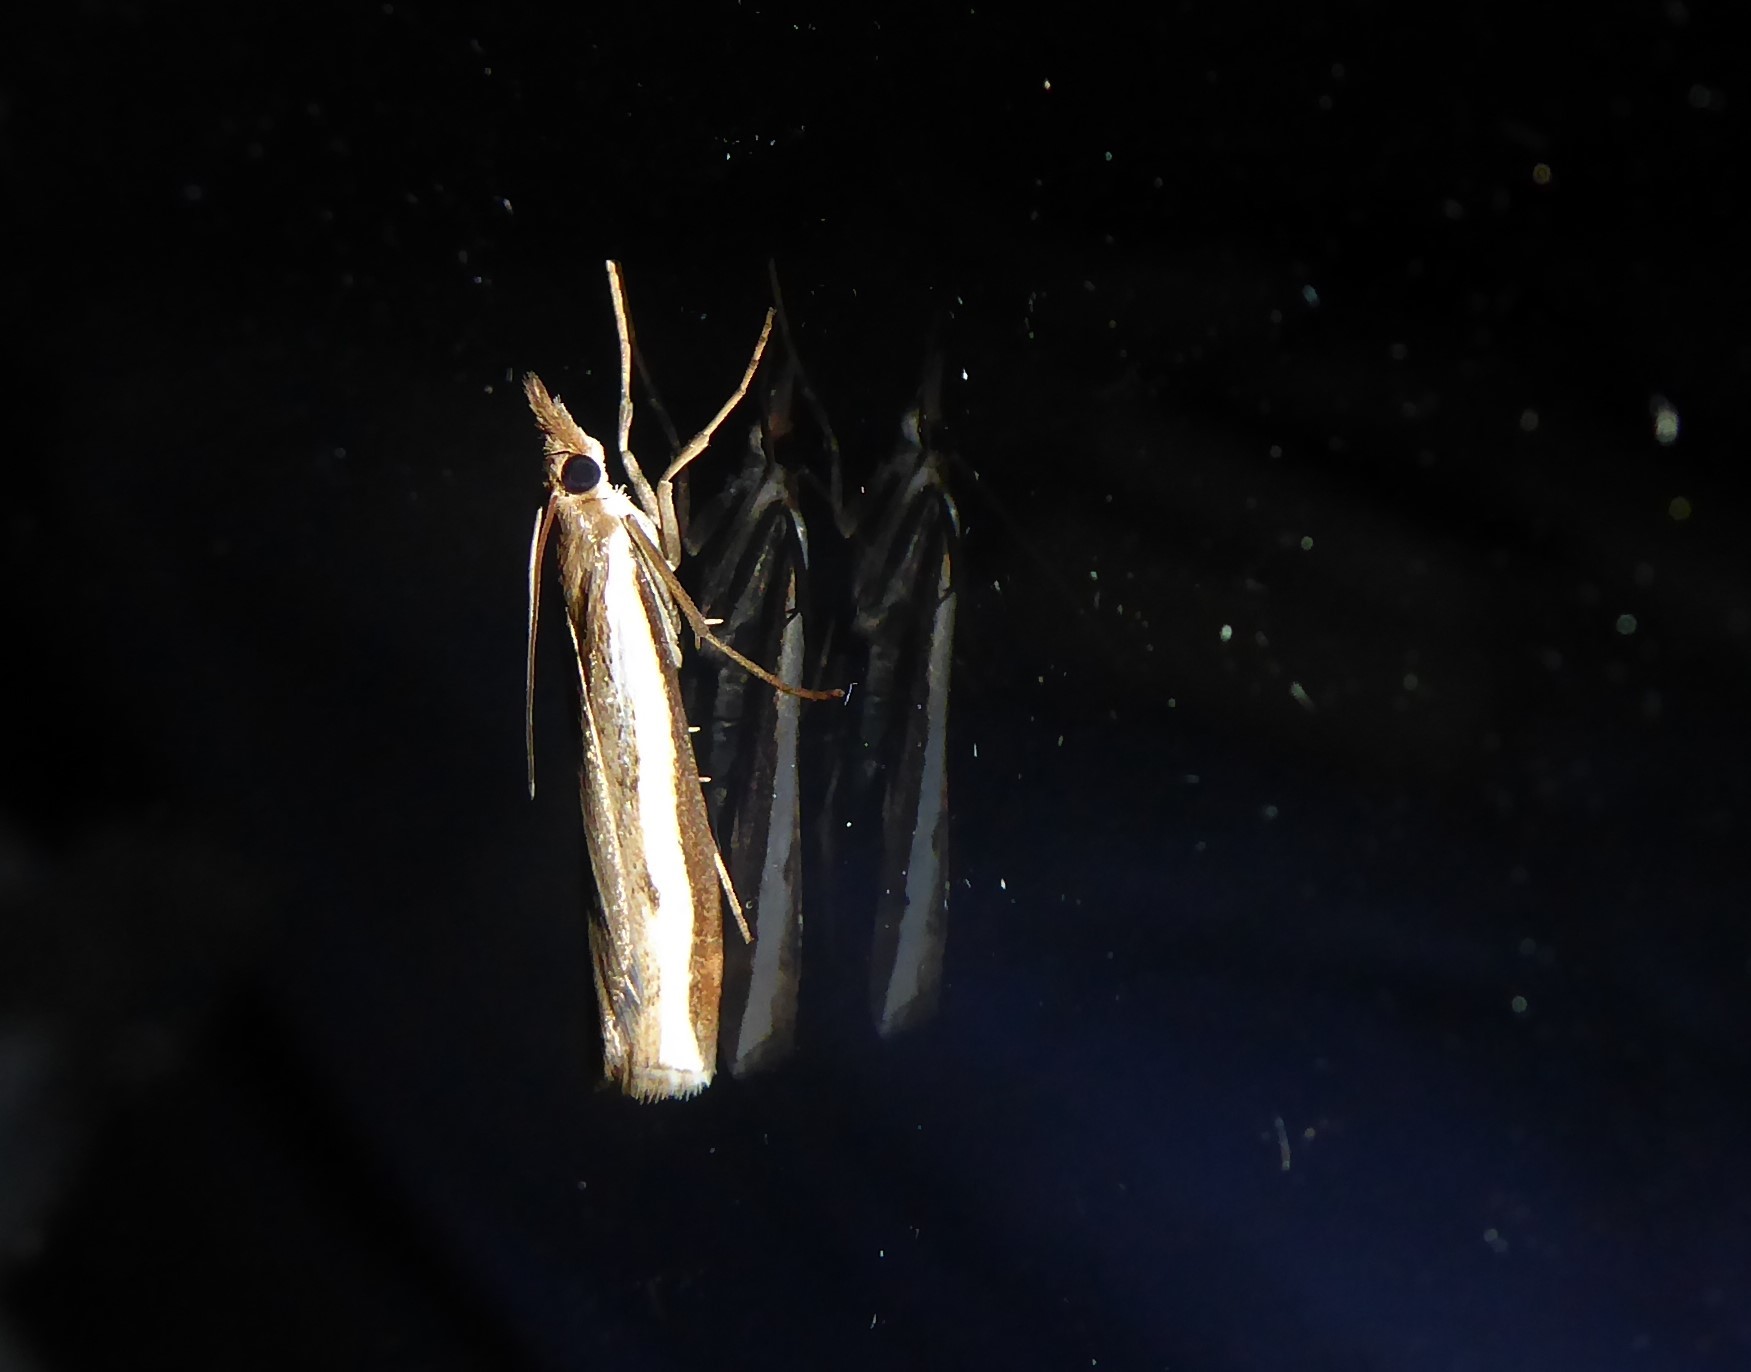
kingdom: Animalia
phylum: Arthropoda
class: Insecta
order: Lepidoptera
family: Crambidae
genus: Orocrambus
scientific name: Orocrambus flexuosellus
